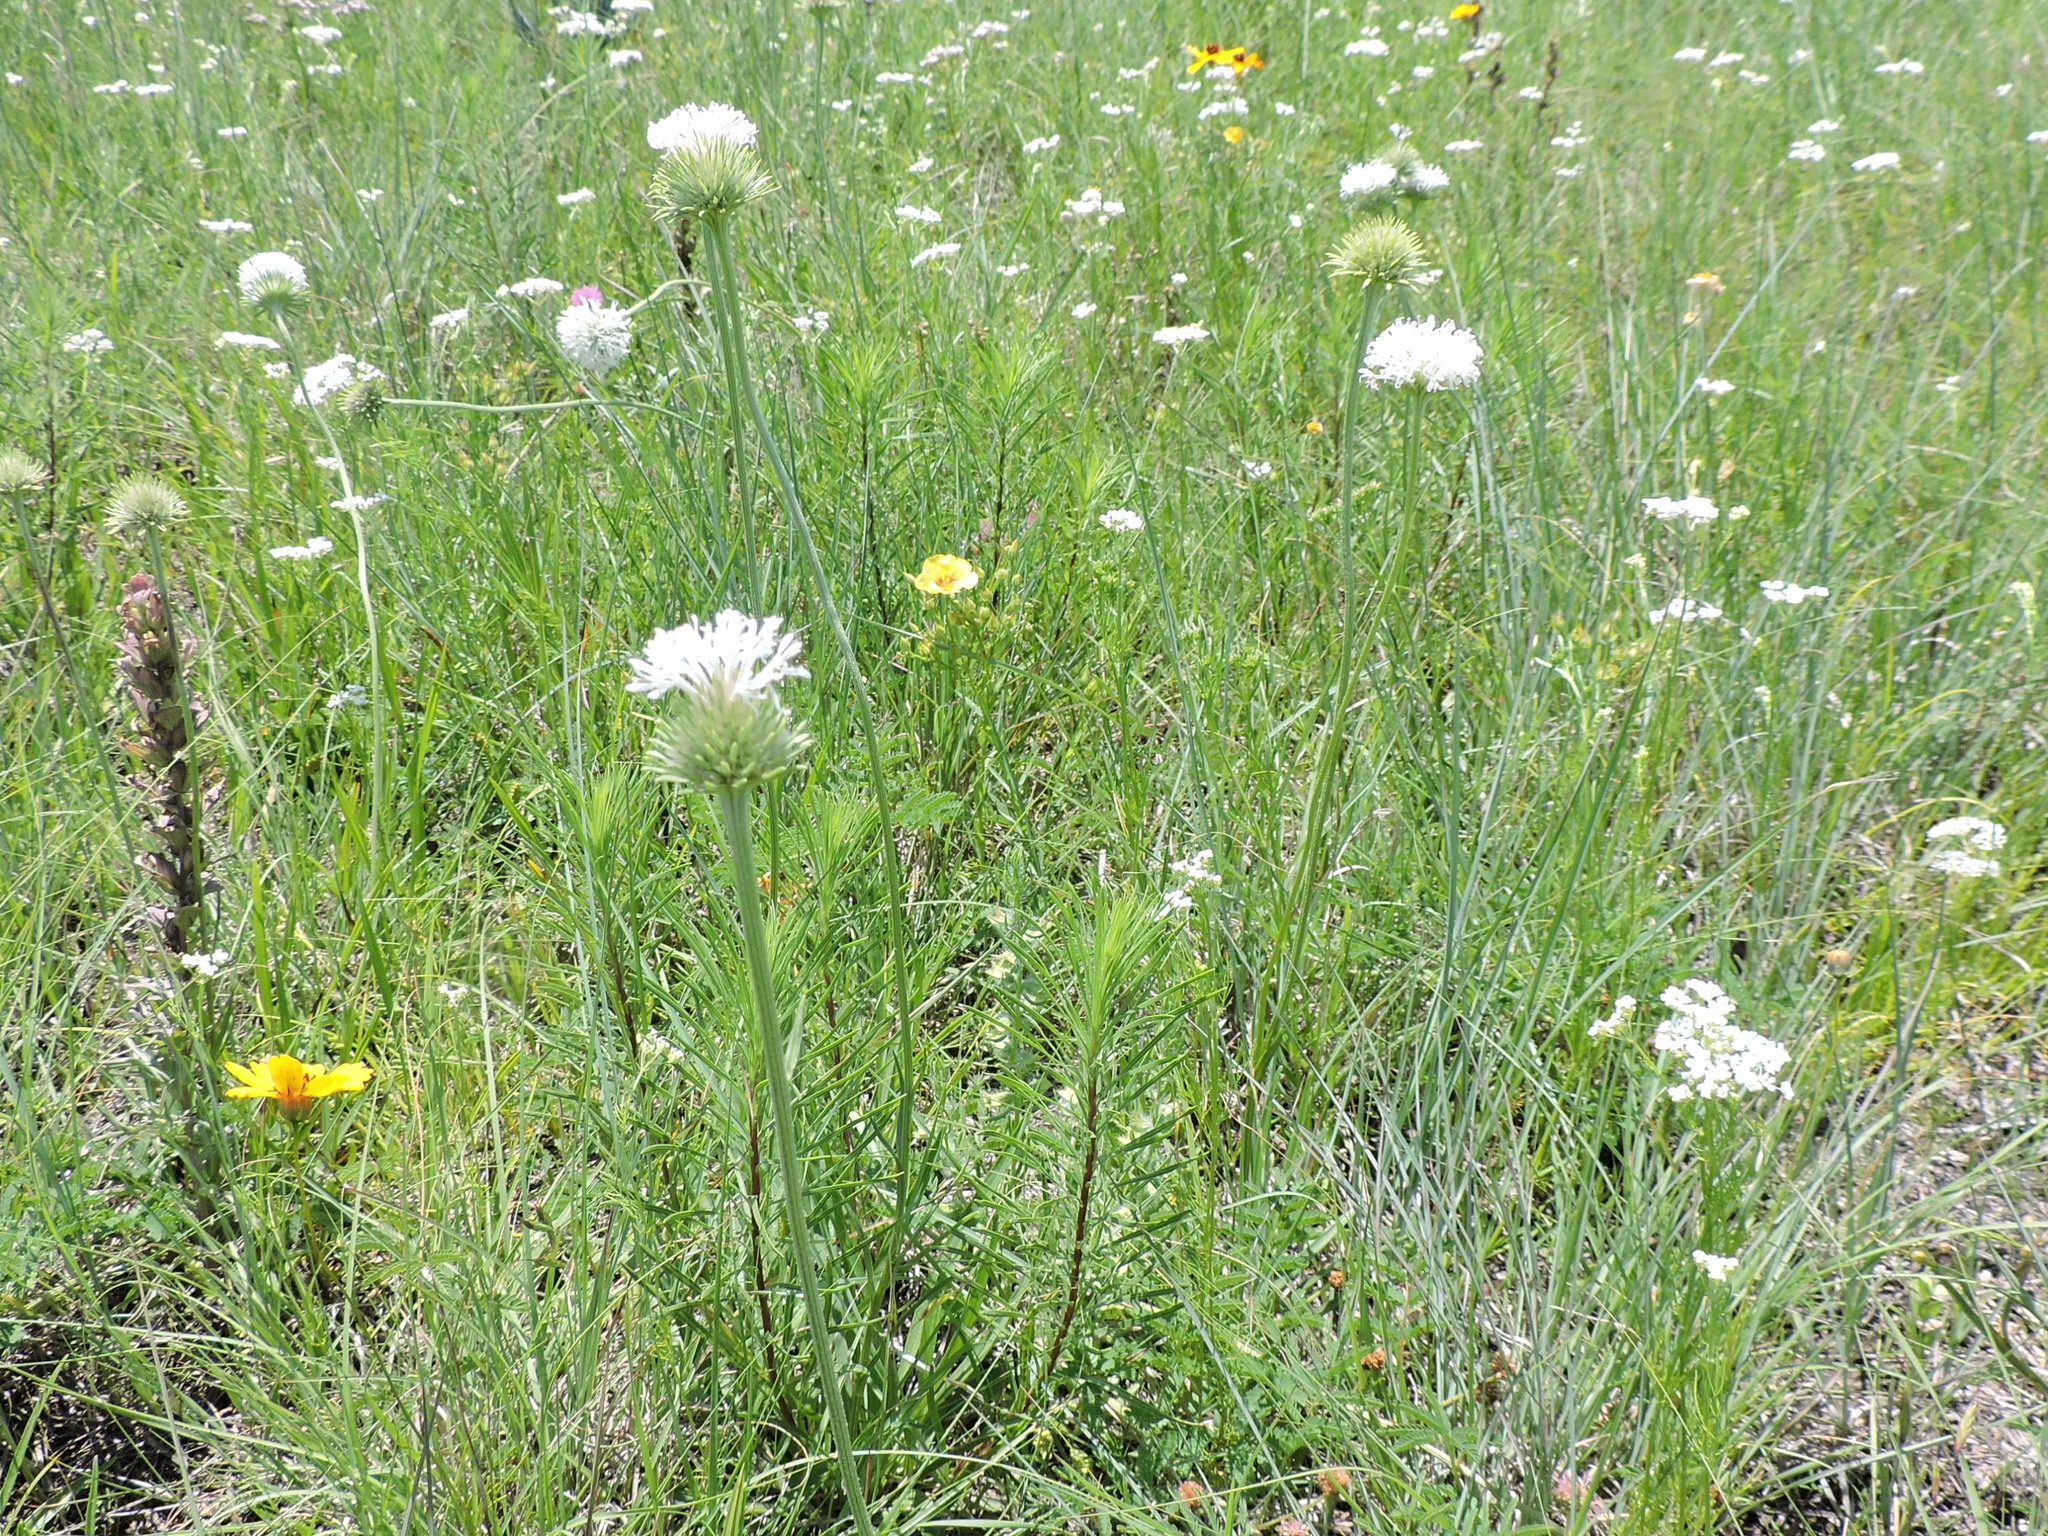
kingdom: Plantae
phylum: Tracheophyta
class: Magnoliopsida
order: Asterales
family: Asteraceae
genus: Marshallia
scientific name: Marshallia caespitosa
